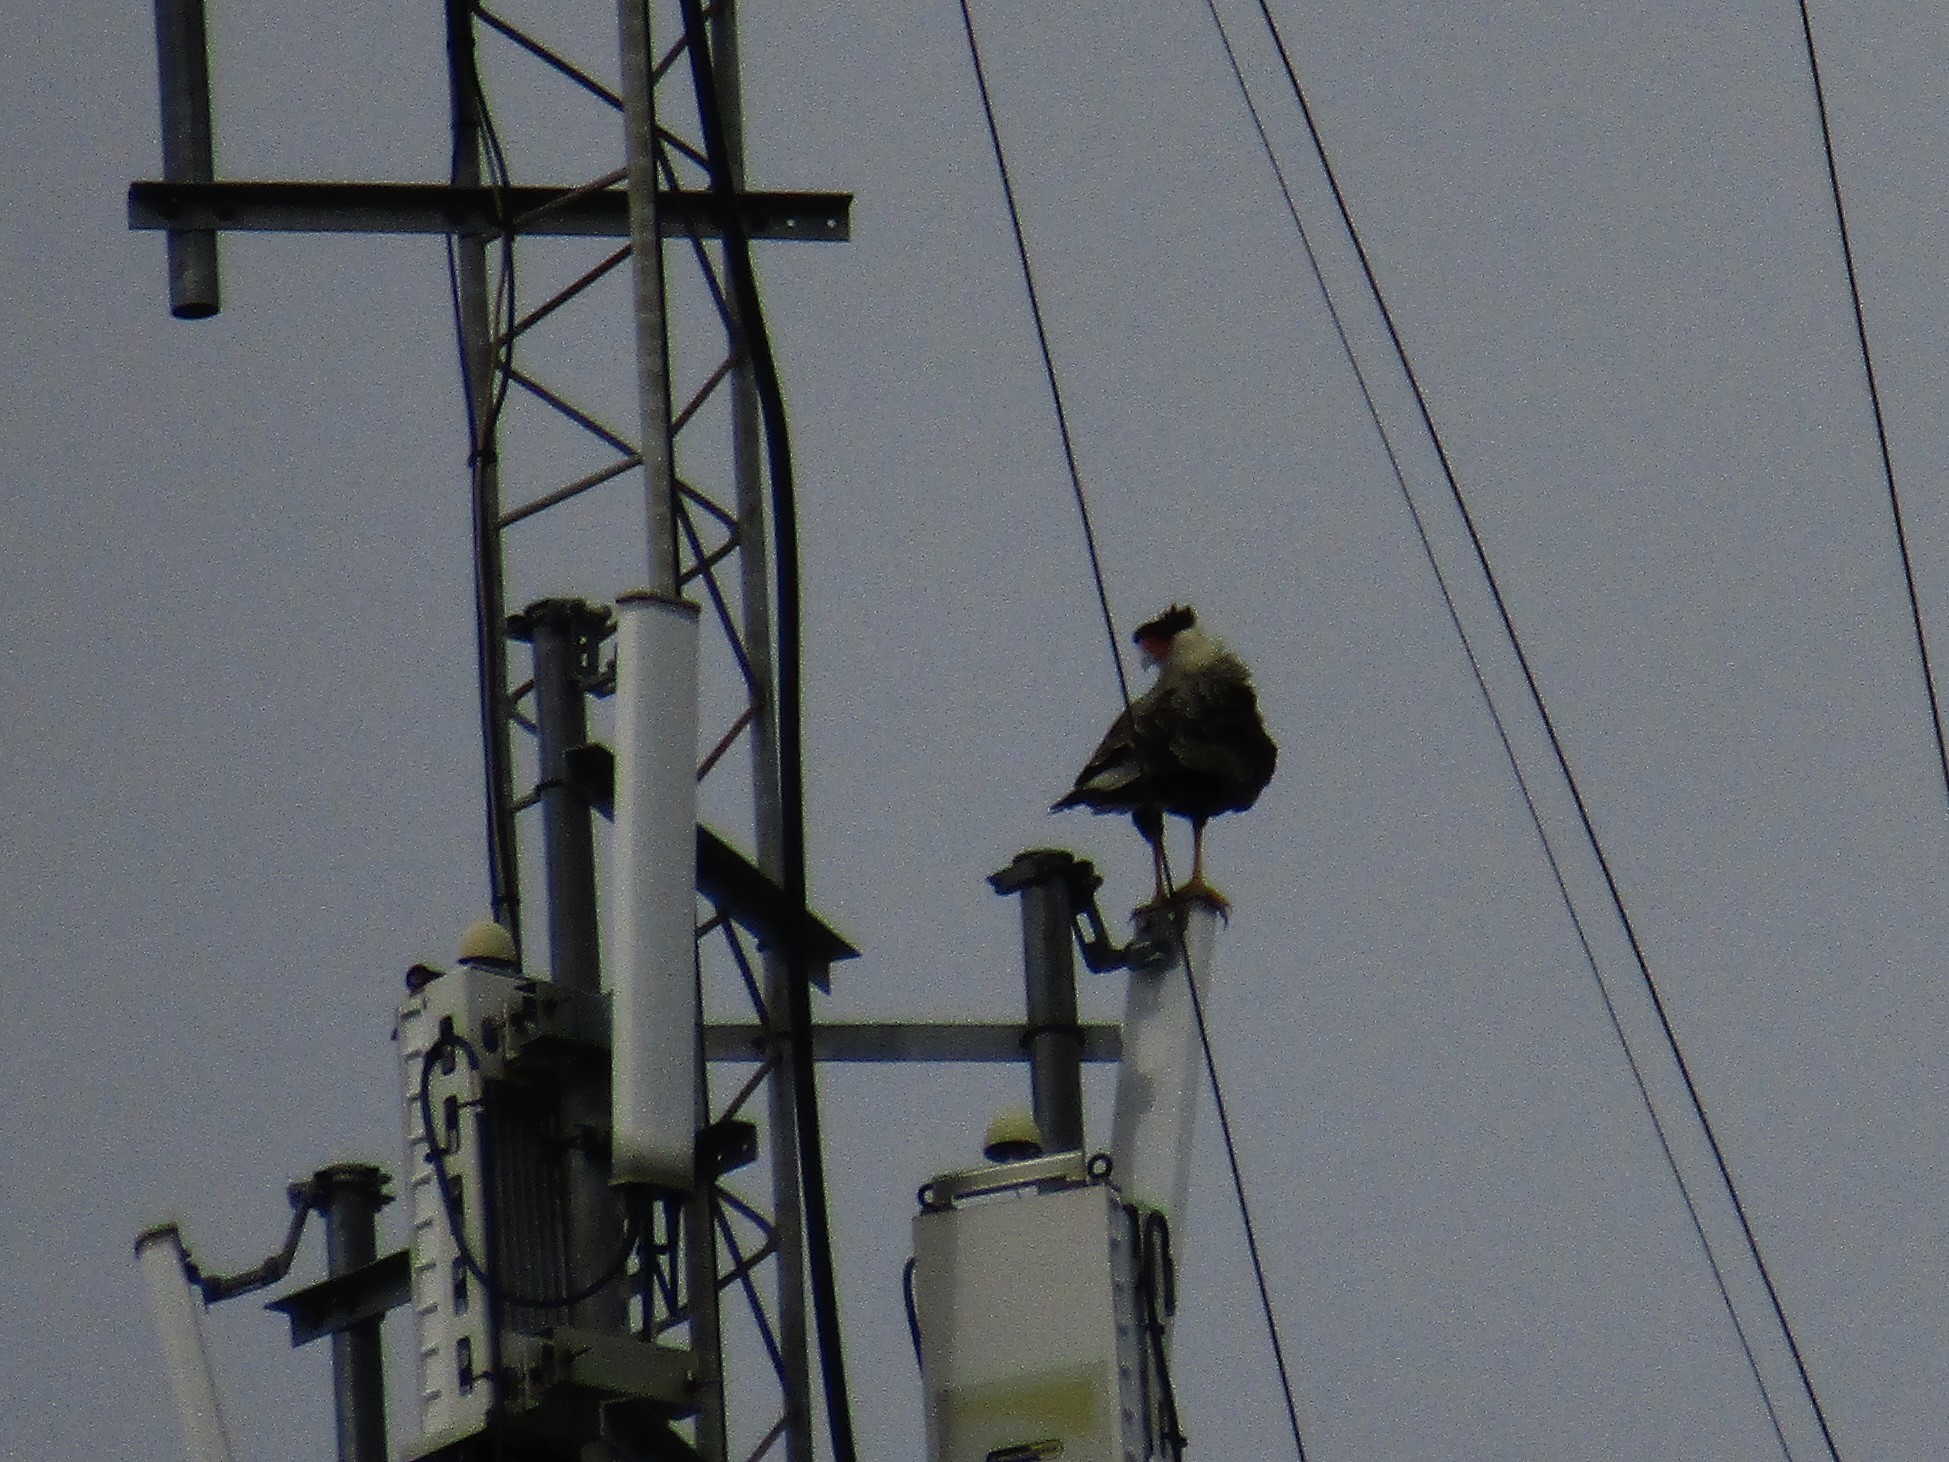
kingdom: Animalia
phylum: Chordata
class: Aves
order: Falconiformes
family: Falconidae
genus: Caracara
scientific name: Caracara plancus
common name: Southern caracara
